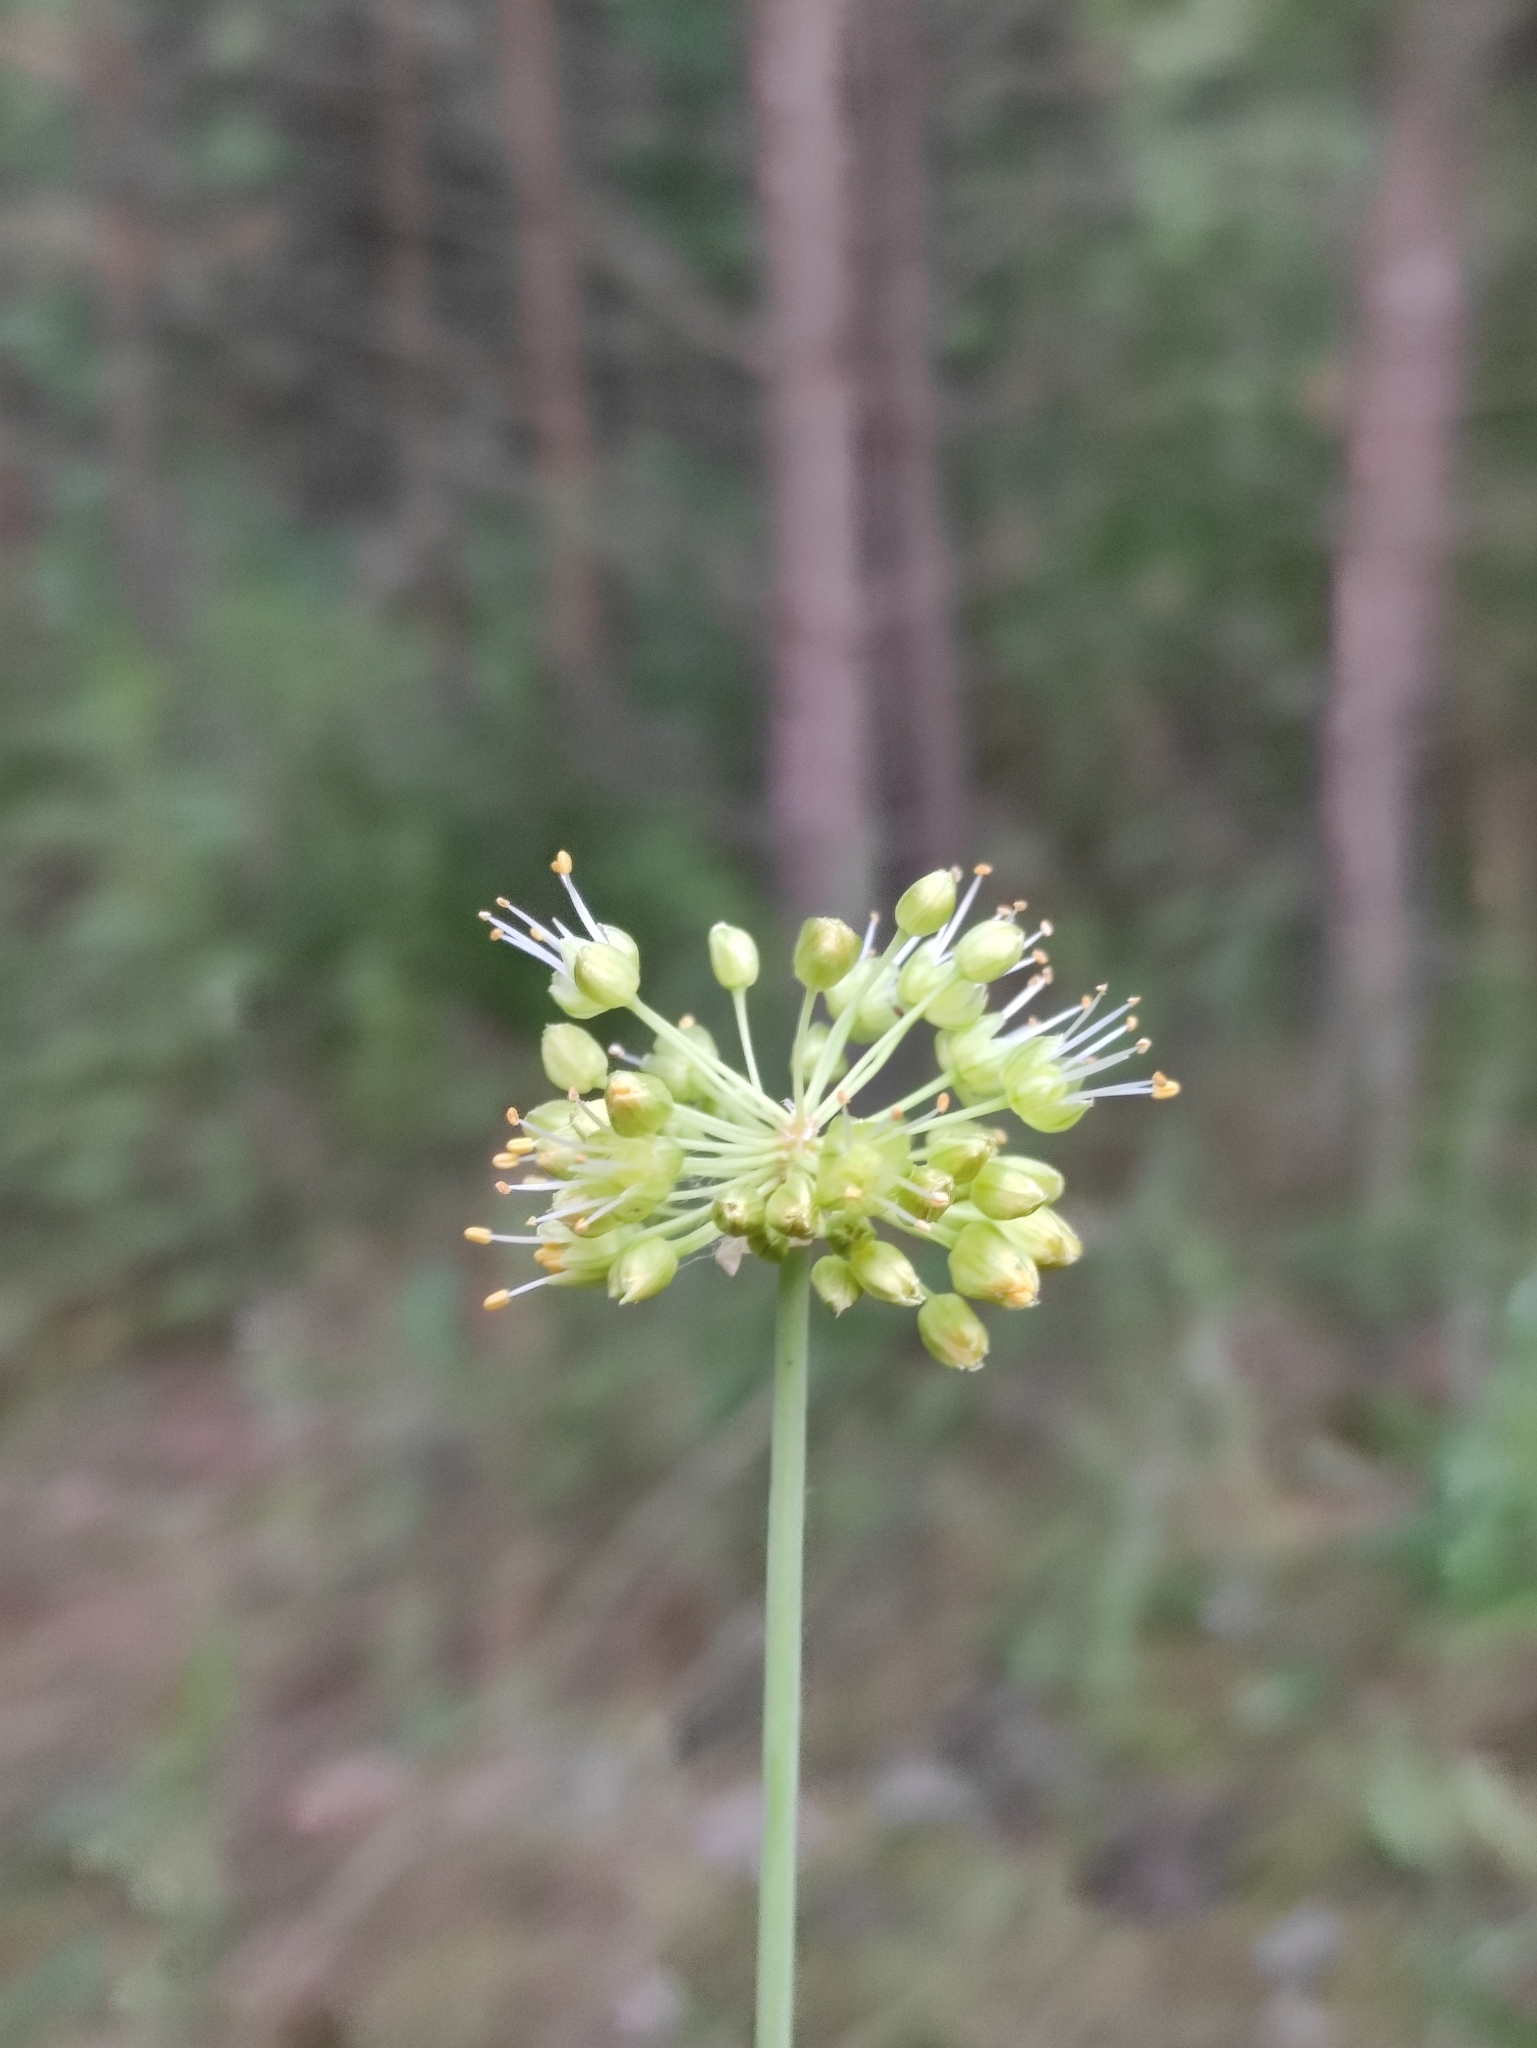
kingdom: Plantae
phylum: Tracheophyta
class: Liliopsida
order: Asparagales
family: Amaryllidaceae
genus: Allium
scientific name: Allium obliquum
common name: Oblique onion
